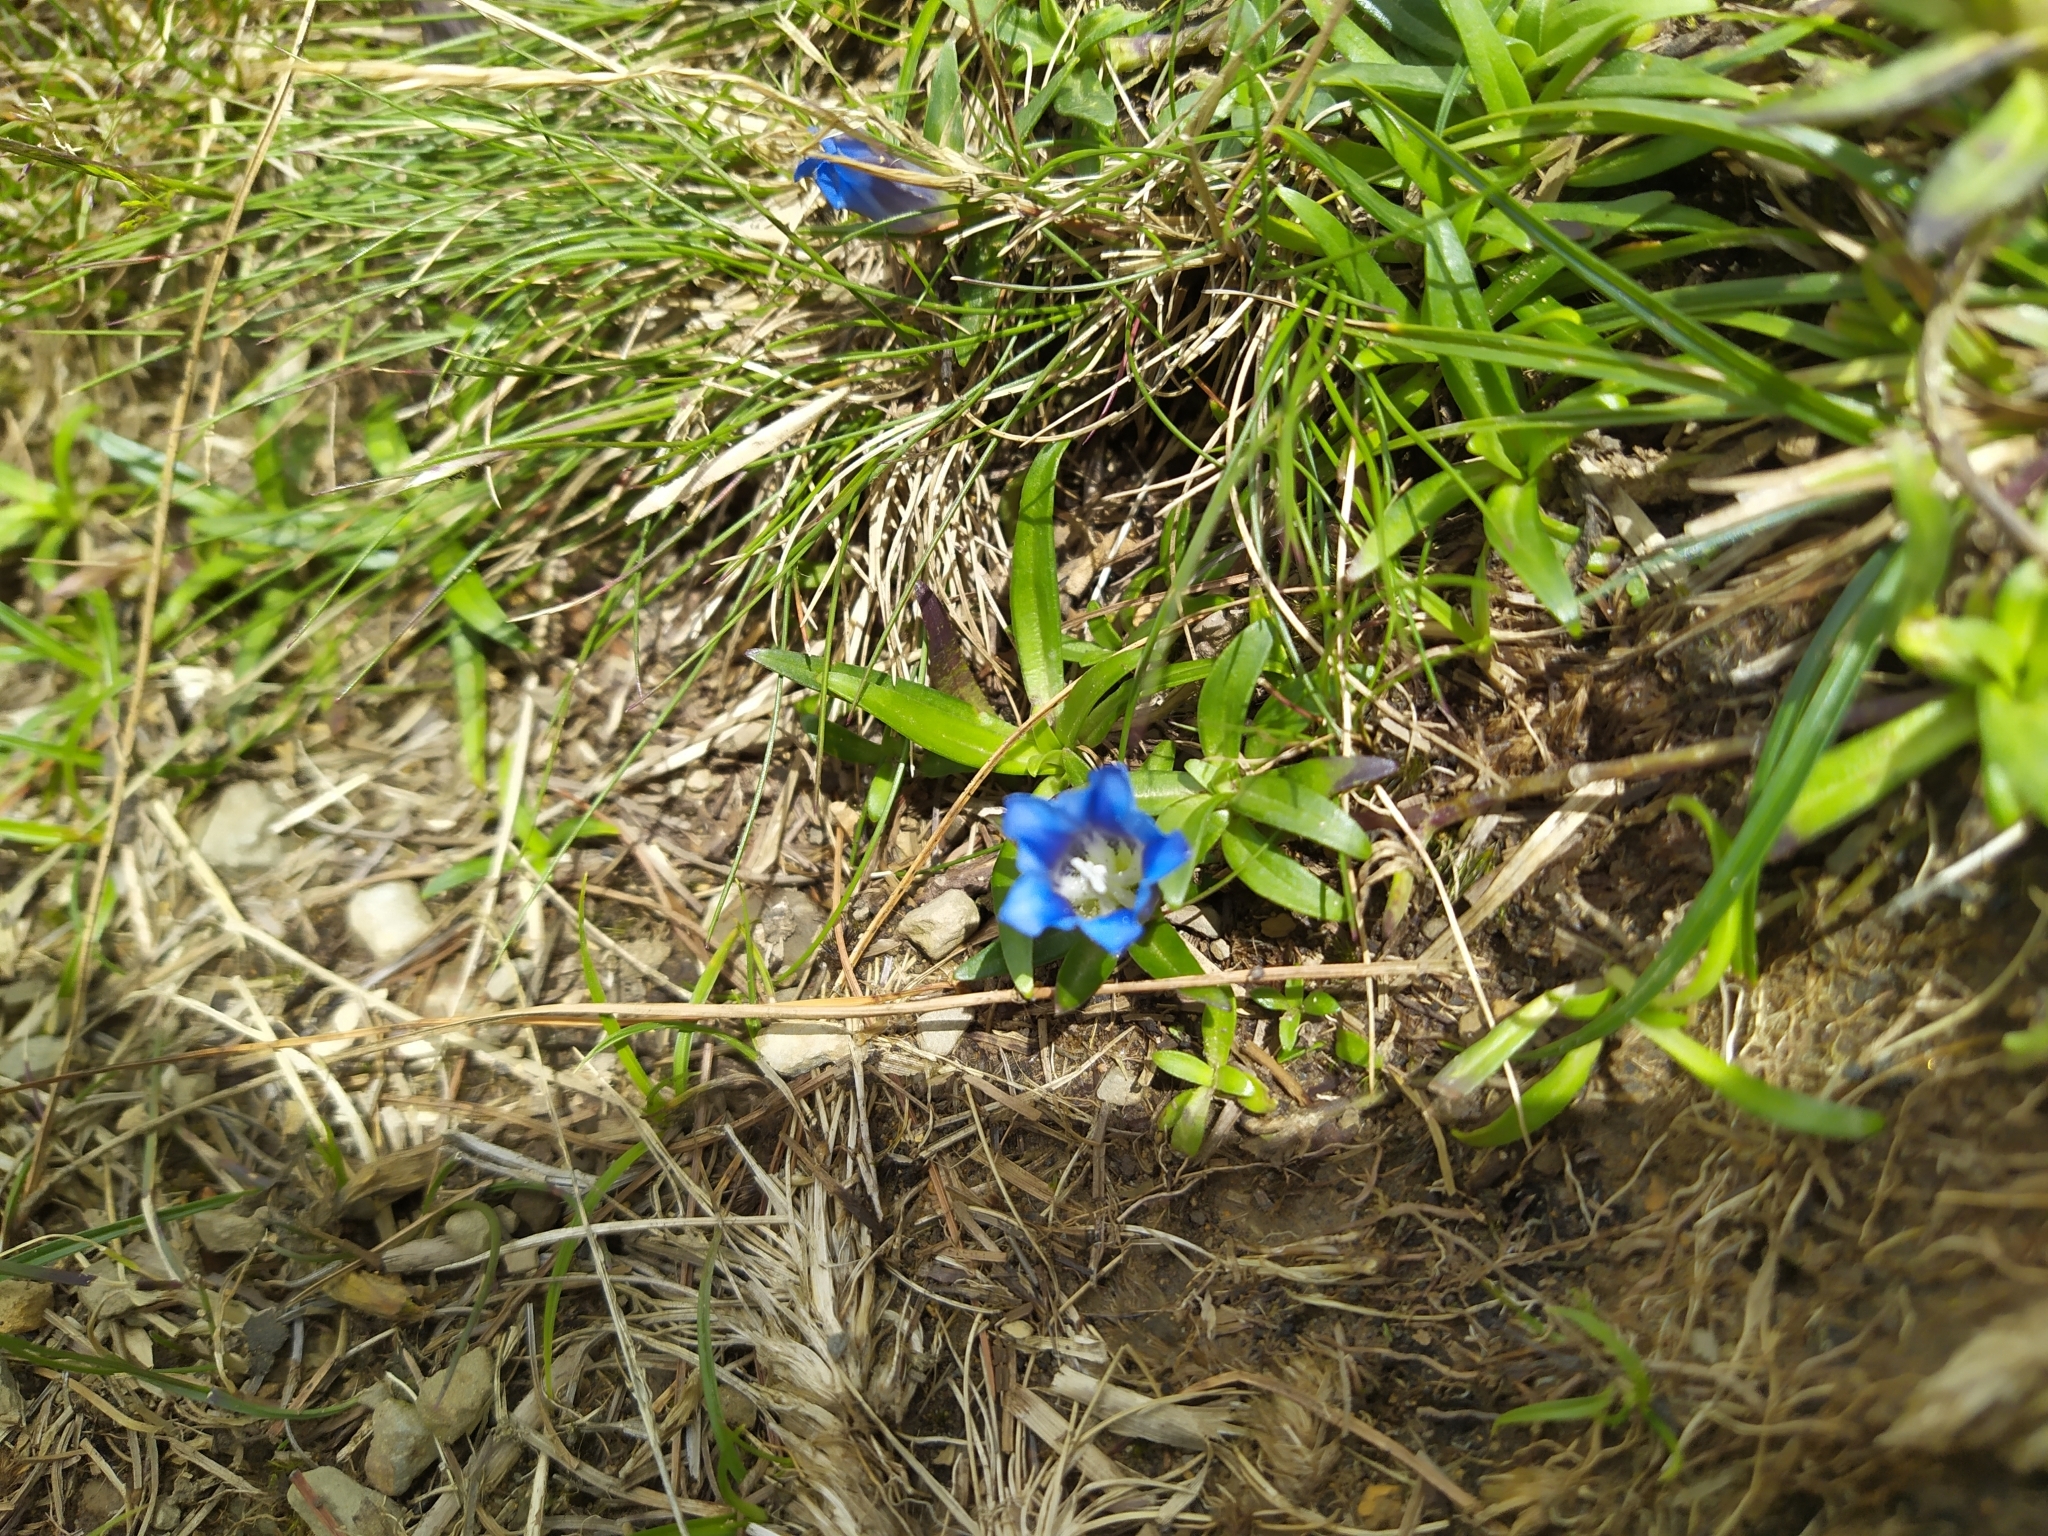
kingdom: Plantae
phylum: Tracheophyta
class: Magnoliopsida
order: Gentianales
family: Gentianaceae
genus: Gentiana
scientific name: Gentiana davidii
